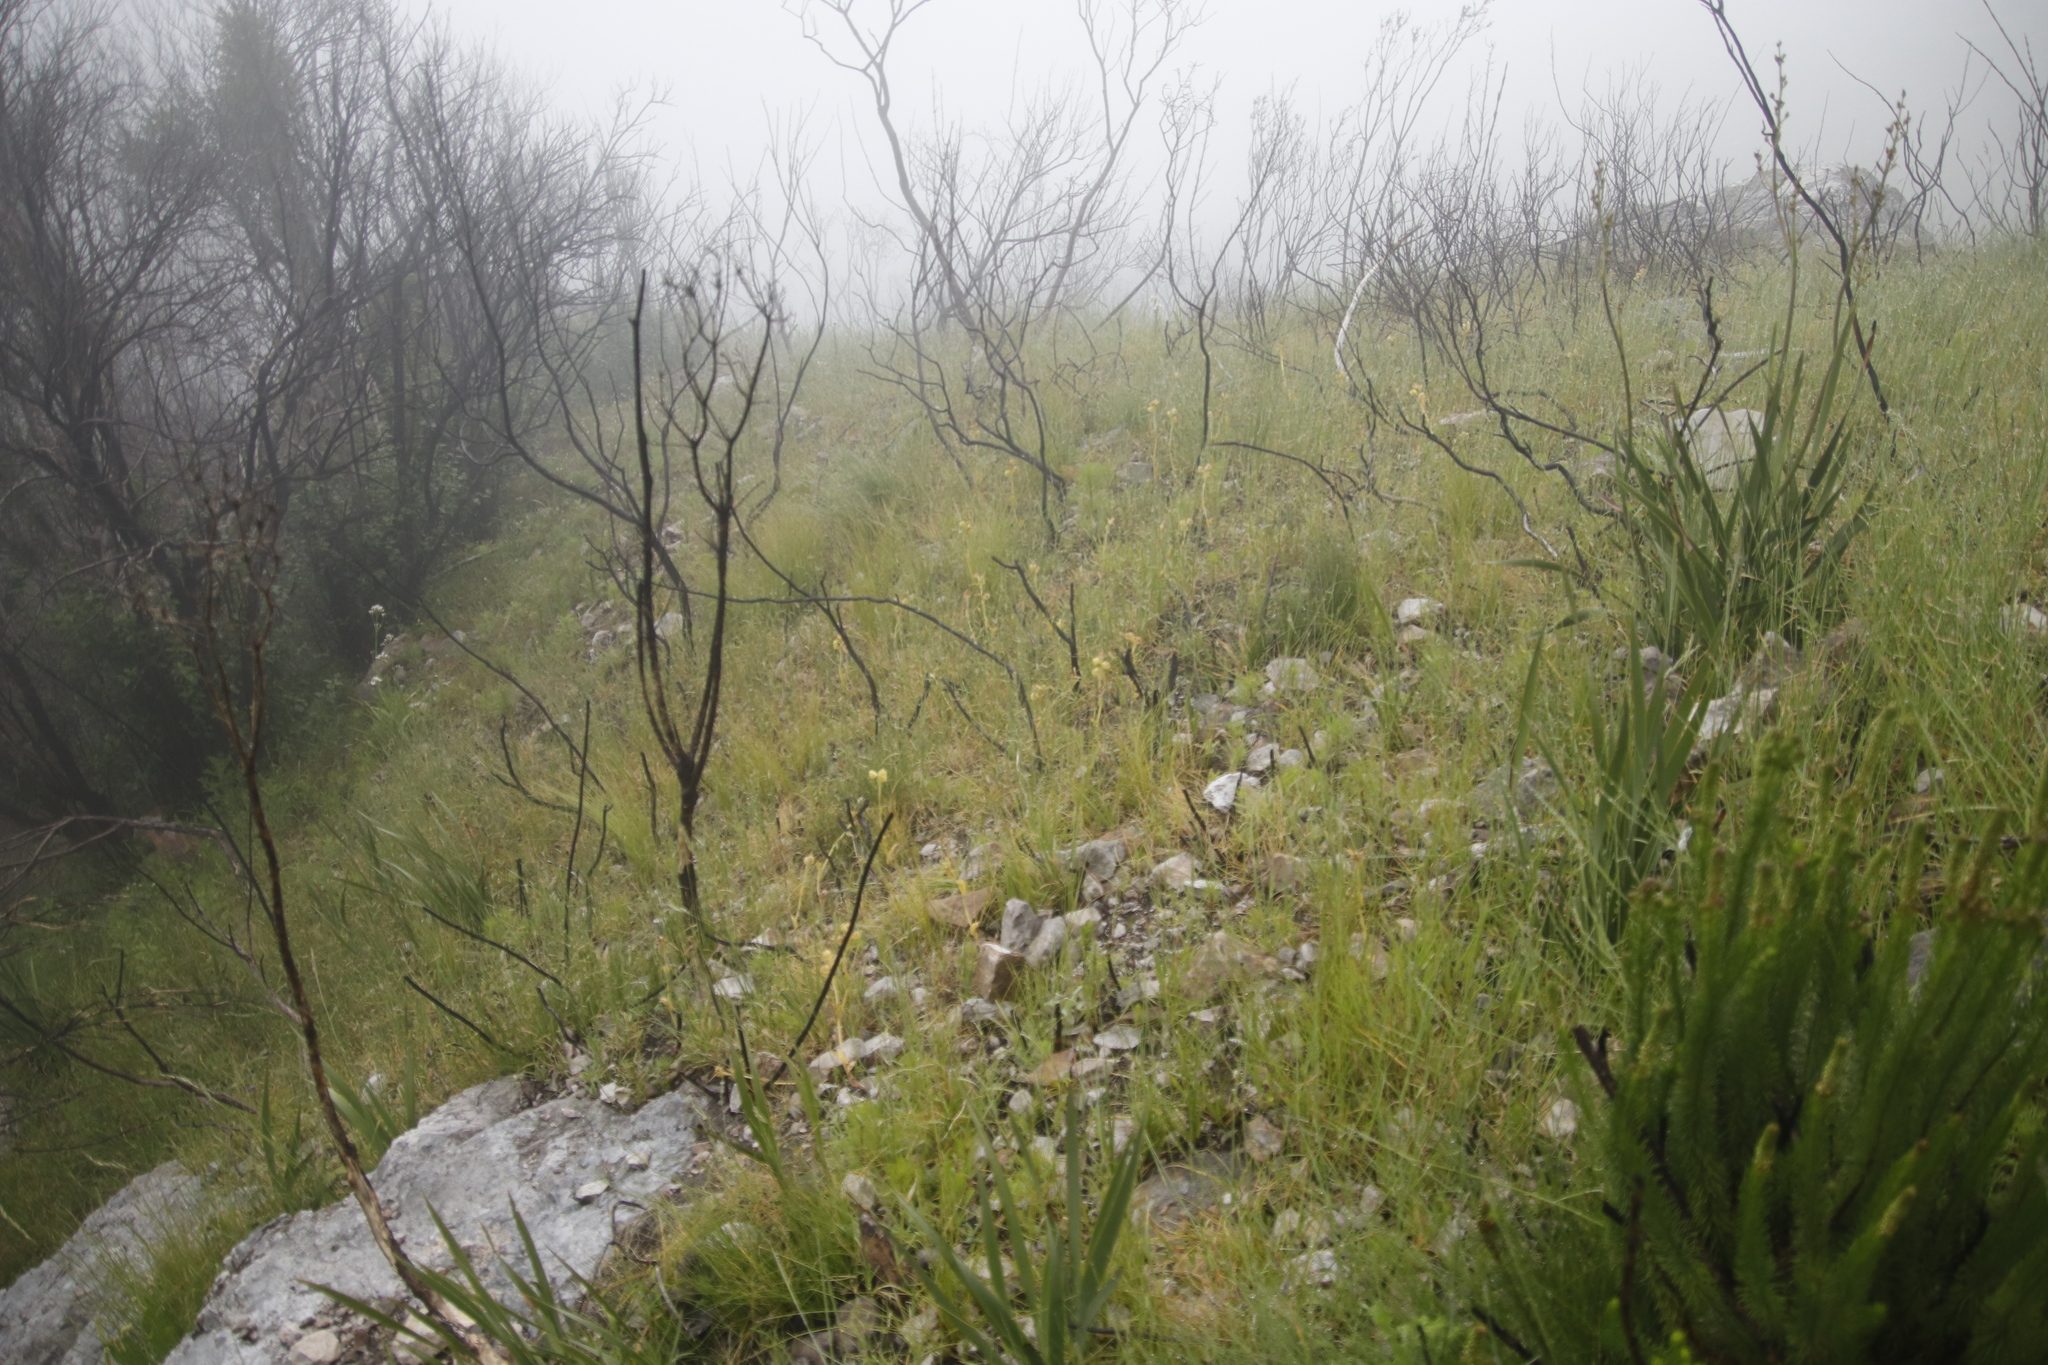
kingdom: Plantae
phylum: Tracheophyta
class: Liliopsida
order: Asparagales
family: Orchidaceae
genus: Pterygodium
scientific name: Pterygodium catholicum
